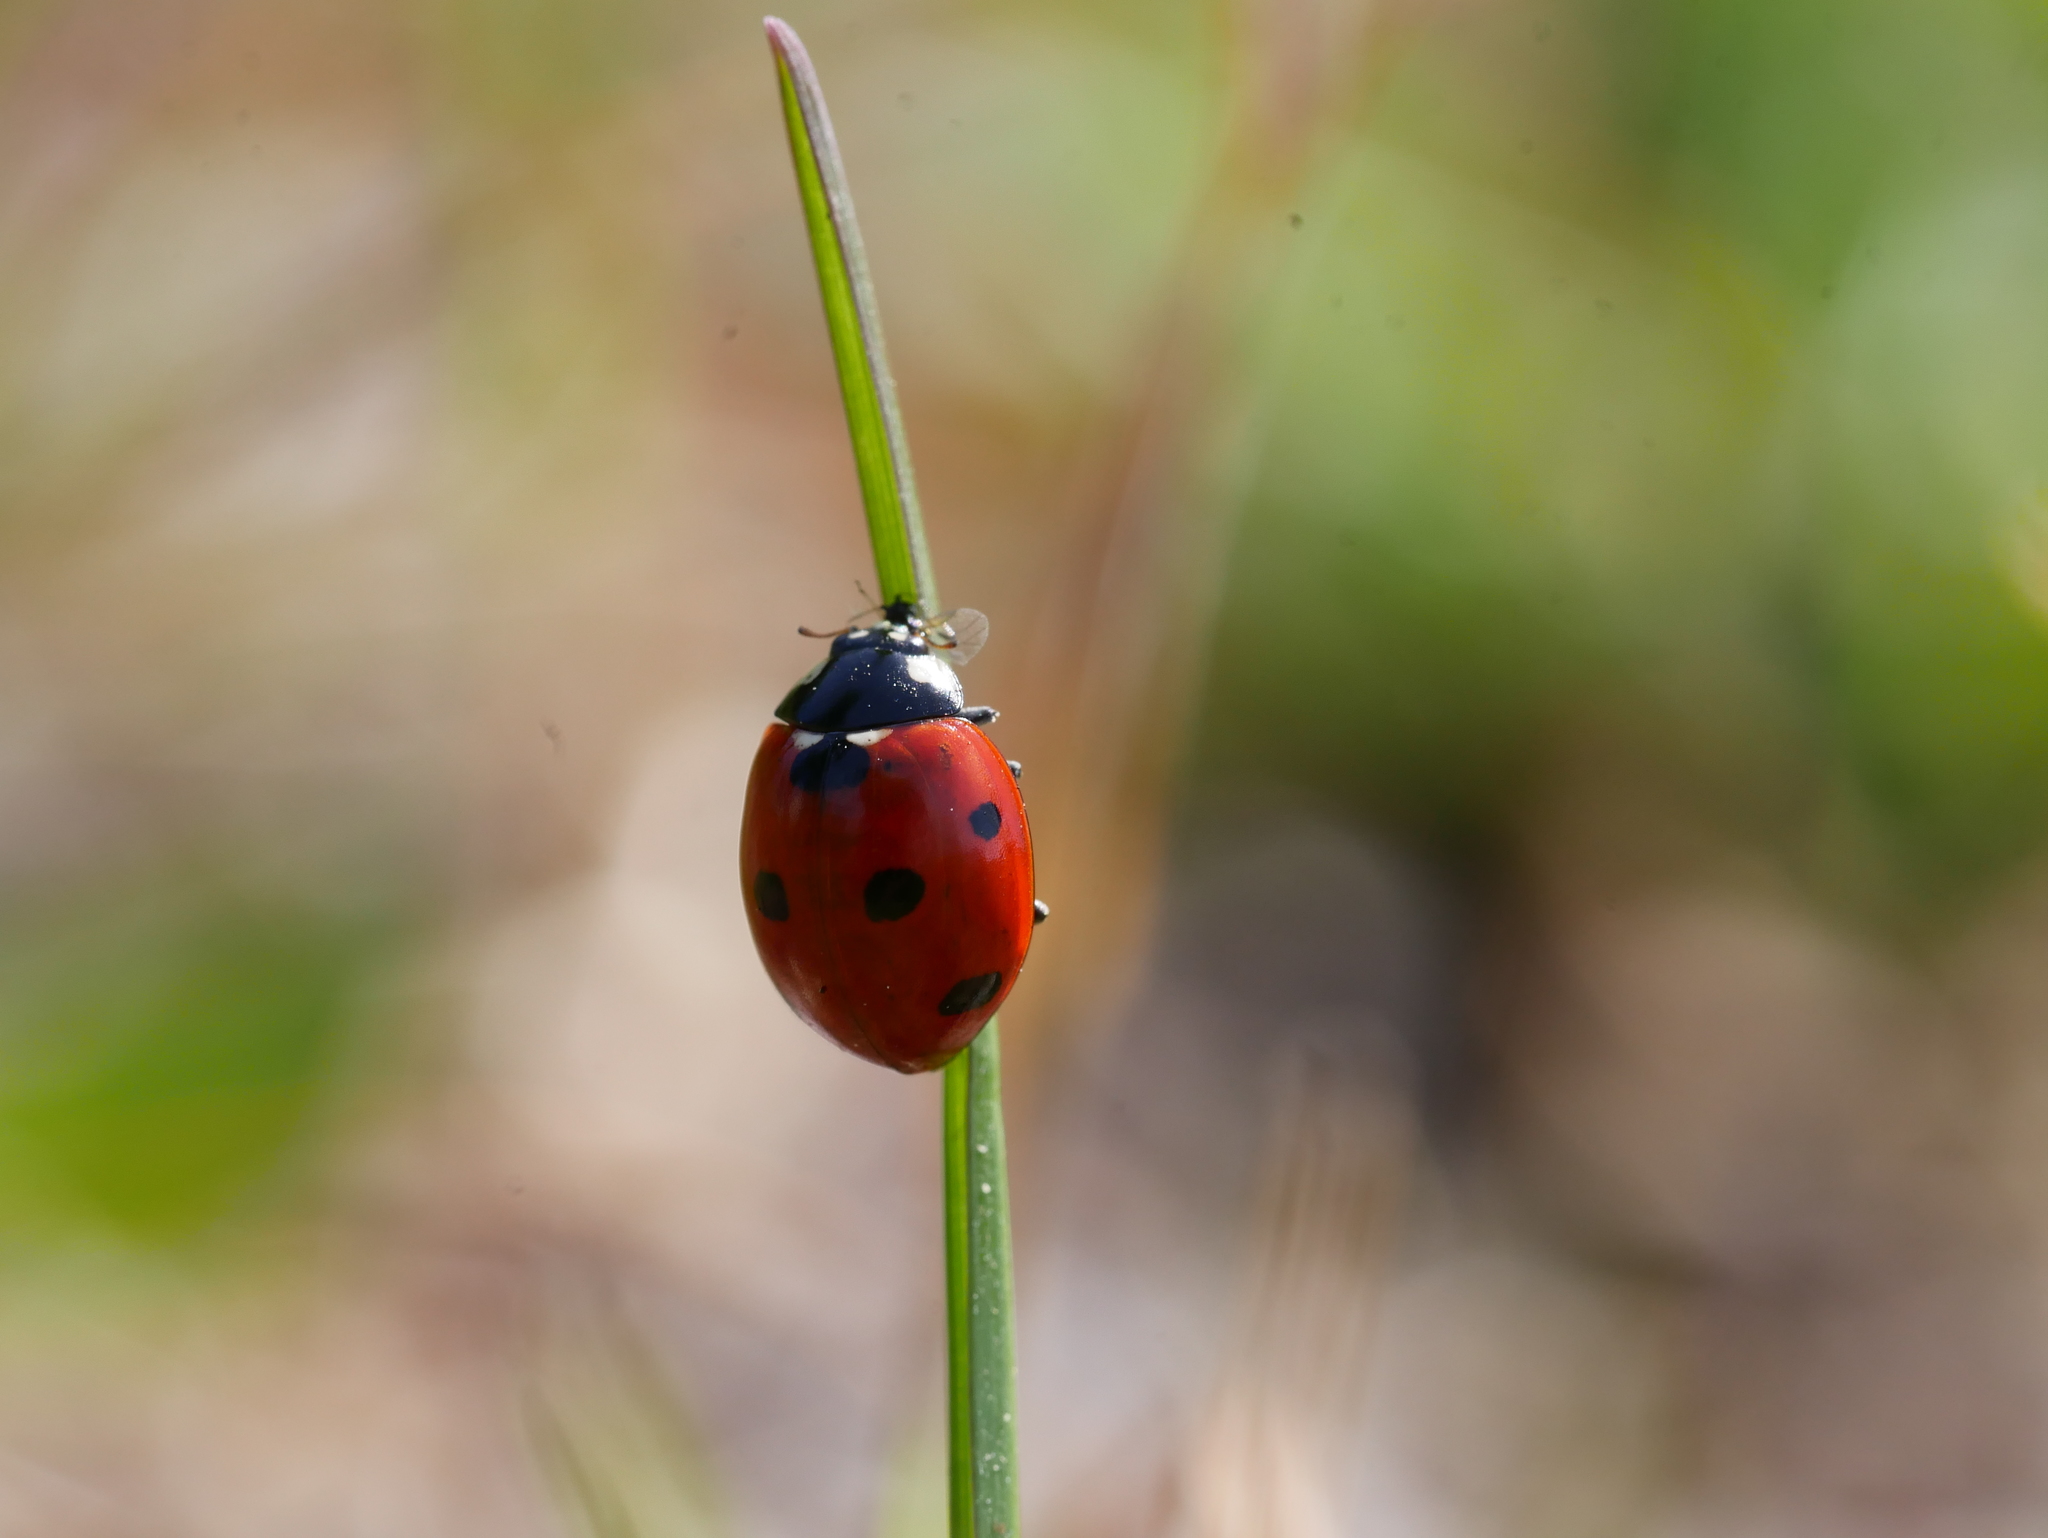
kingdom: Animalia
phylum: Arthropoda
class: Insecta
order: Coleoptera
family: Coccinellidae
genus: Coccinella
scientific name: Coccinella septempunctata
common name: Sevenspotted lady beetle
